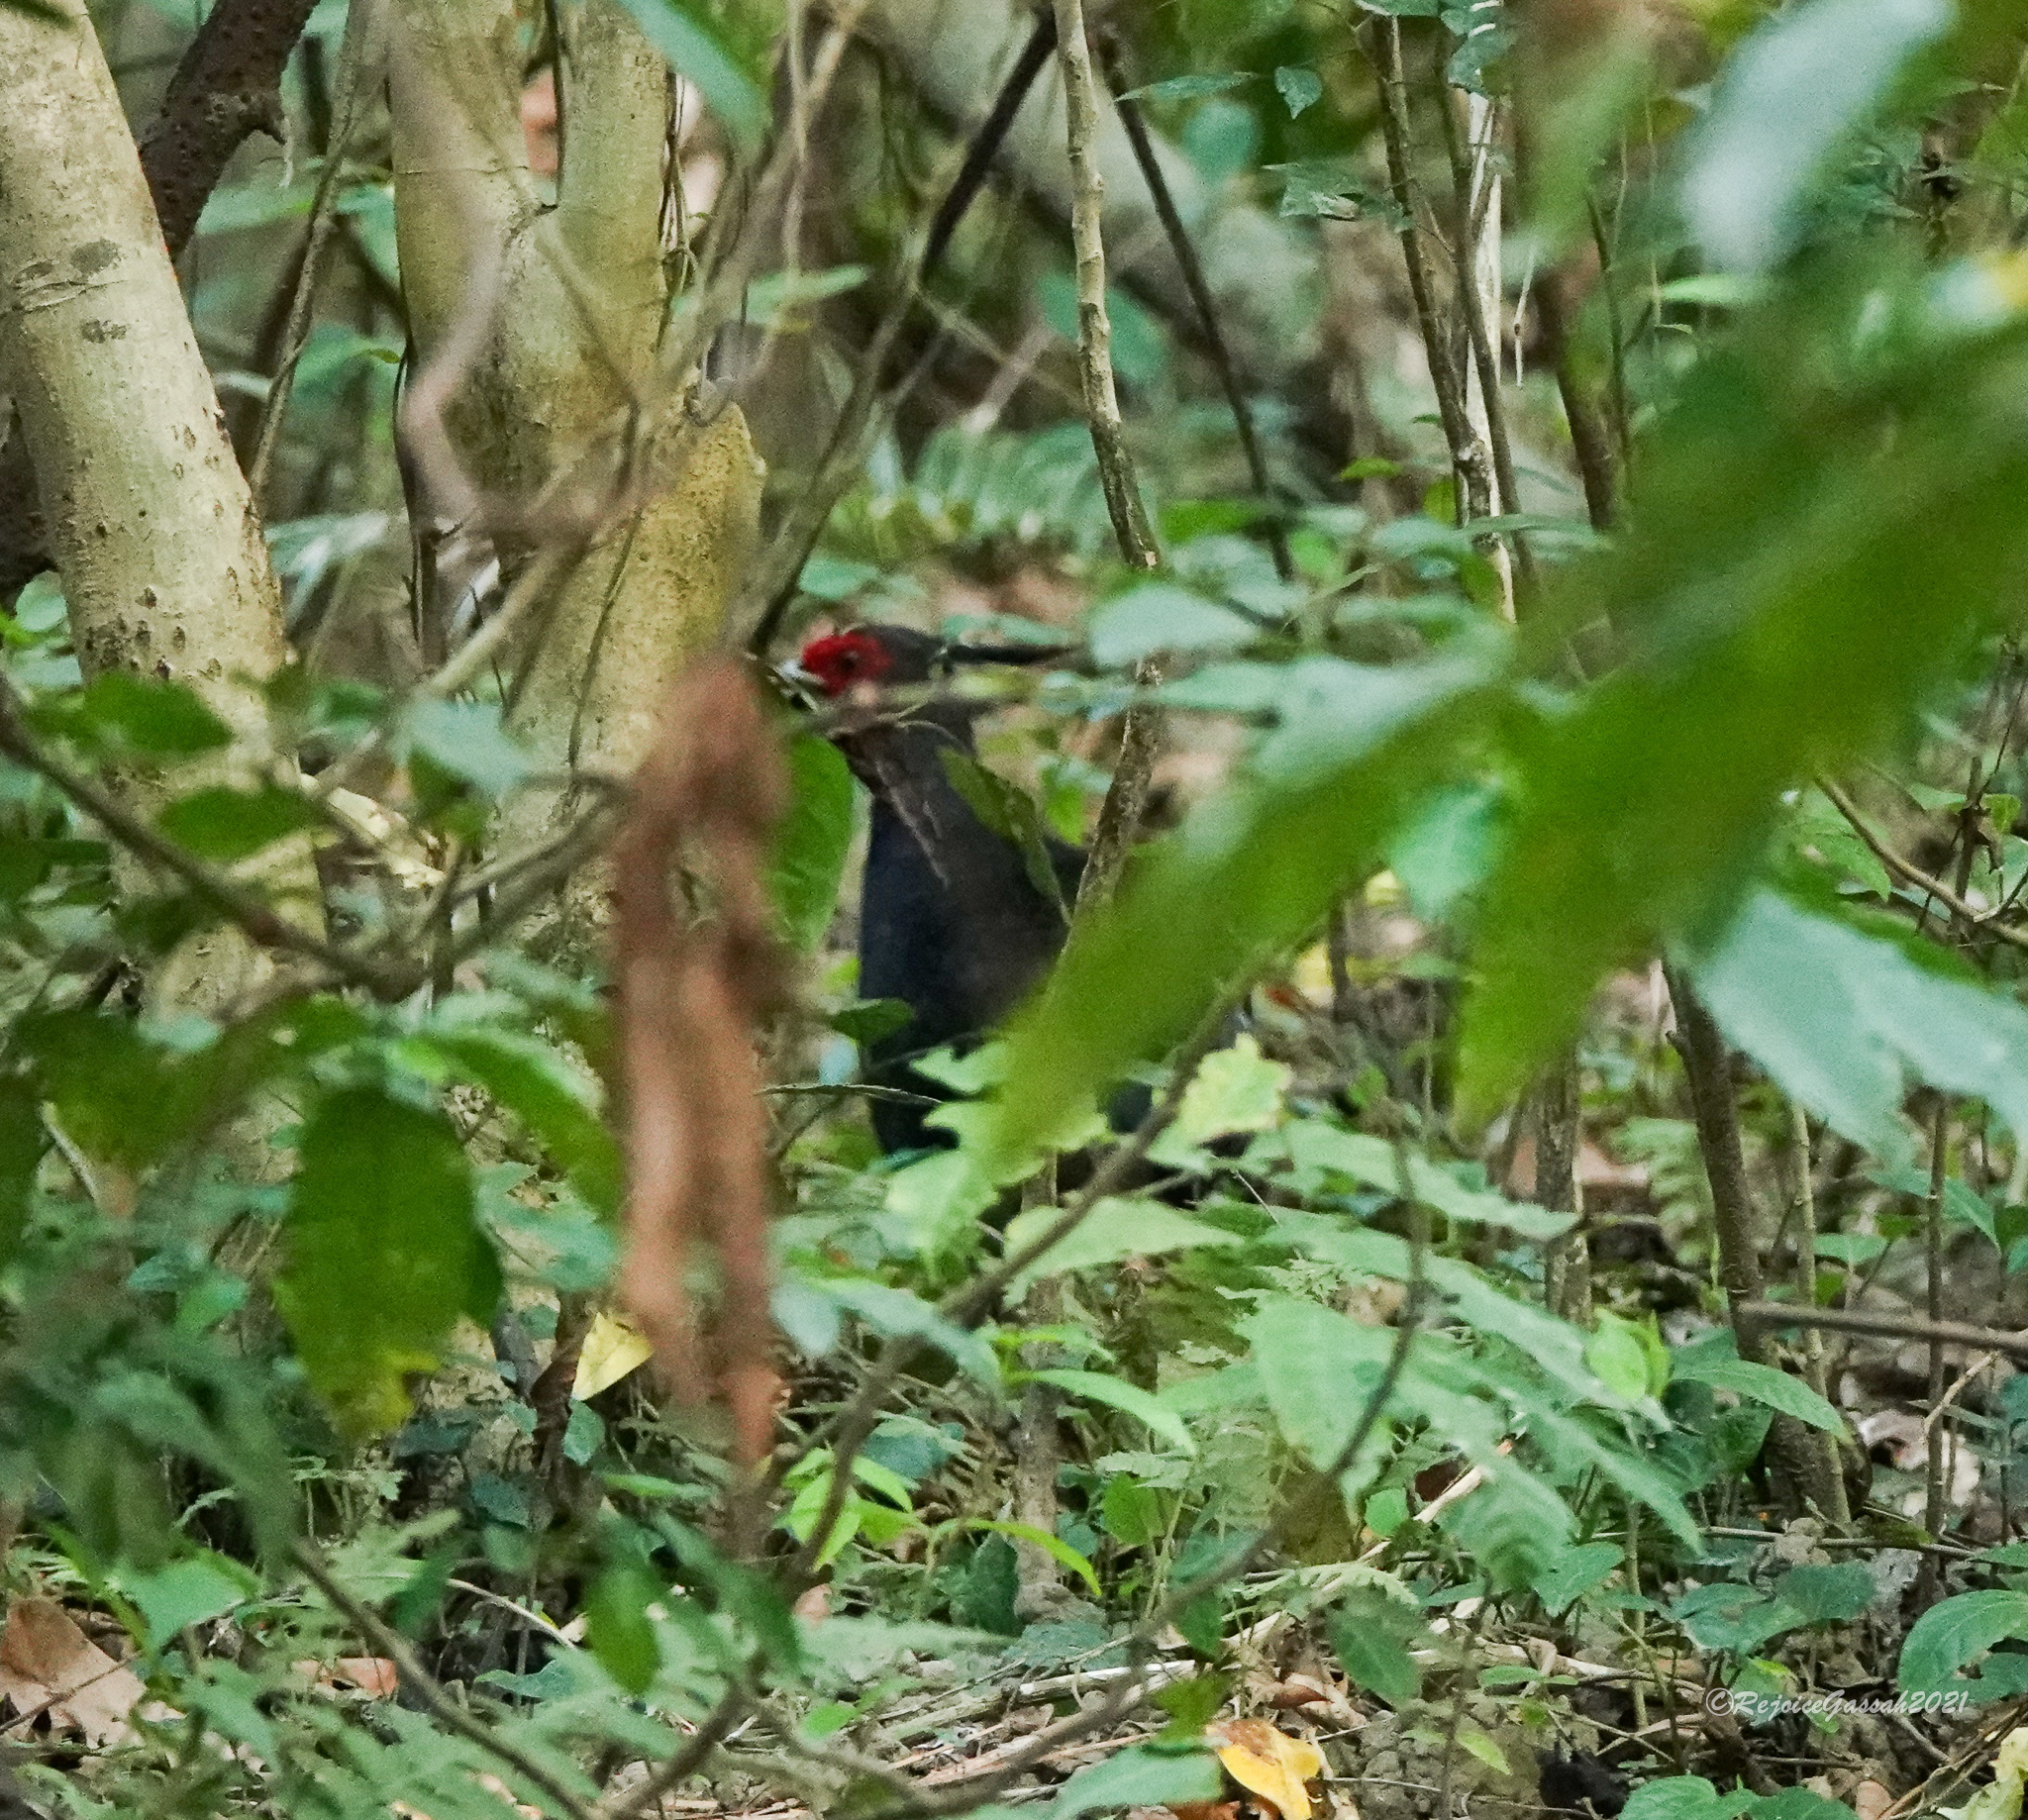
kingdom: Animalia
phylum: Chordata
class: Aves
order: Galliformes
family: Phasianidae
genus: Lophura
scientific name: Lophura leucomelanos
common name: Kalij pheasant
